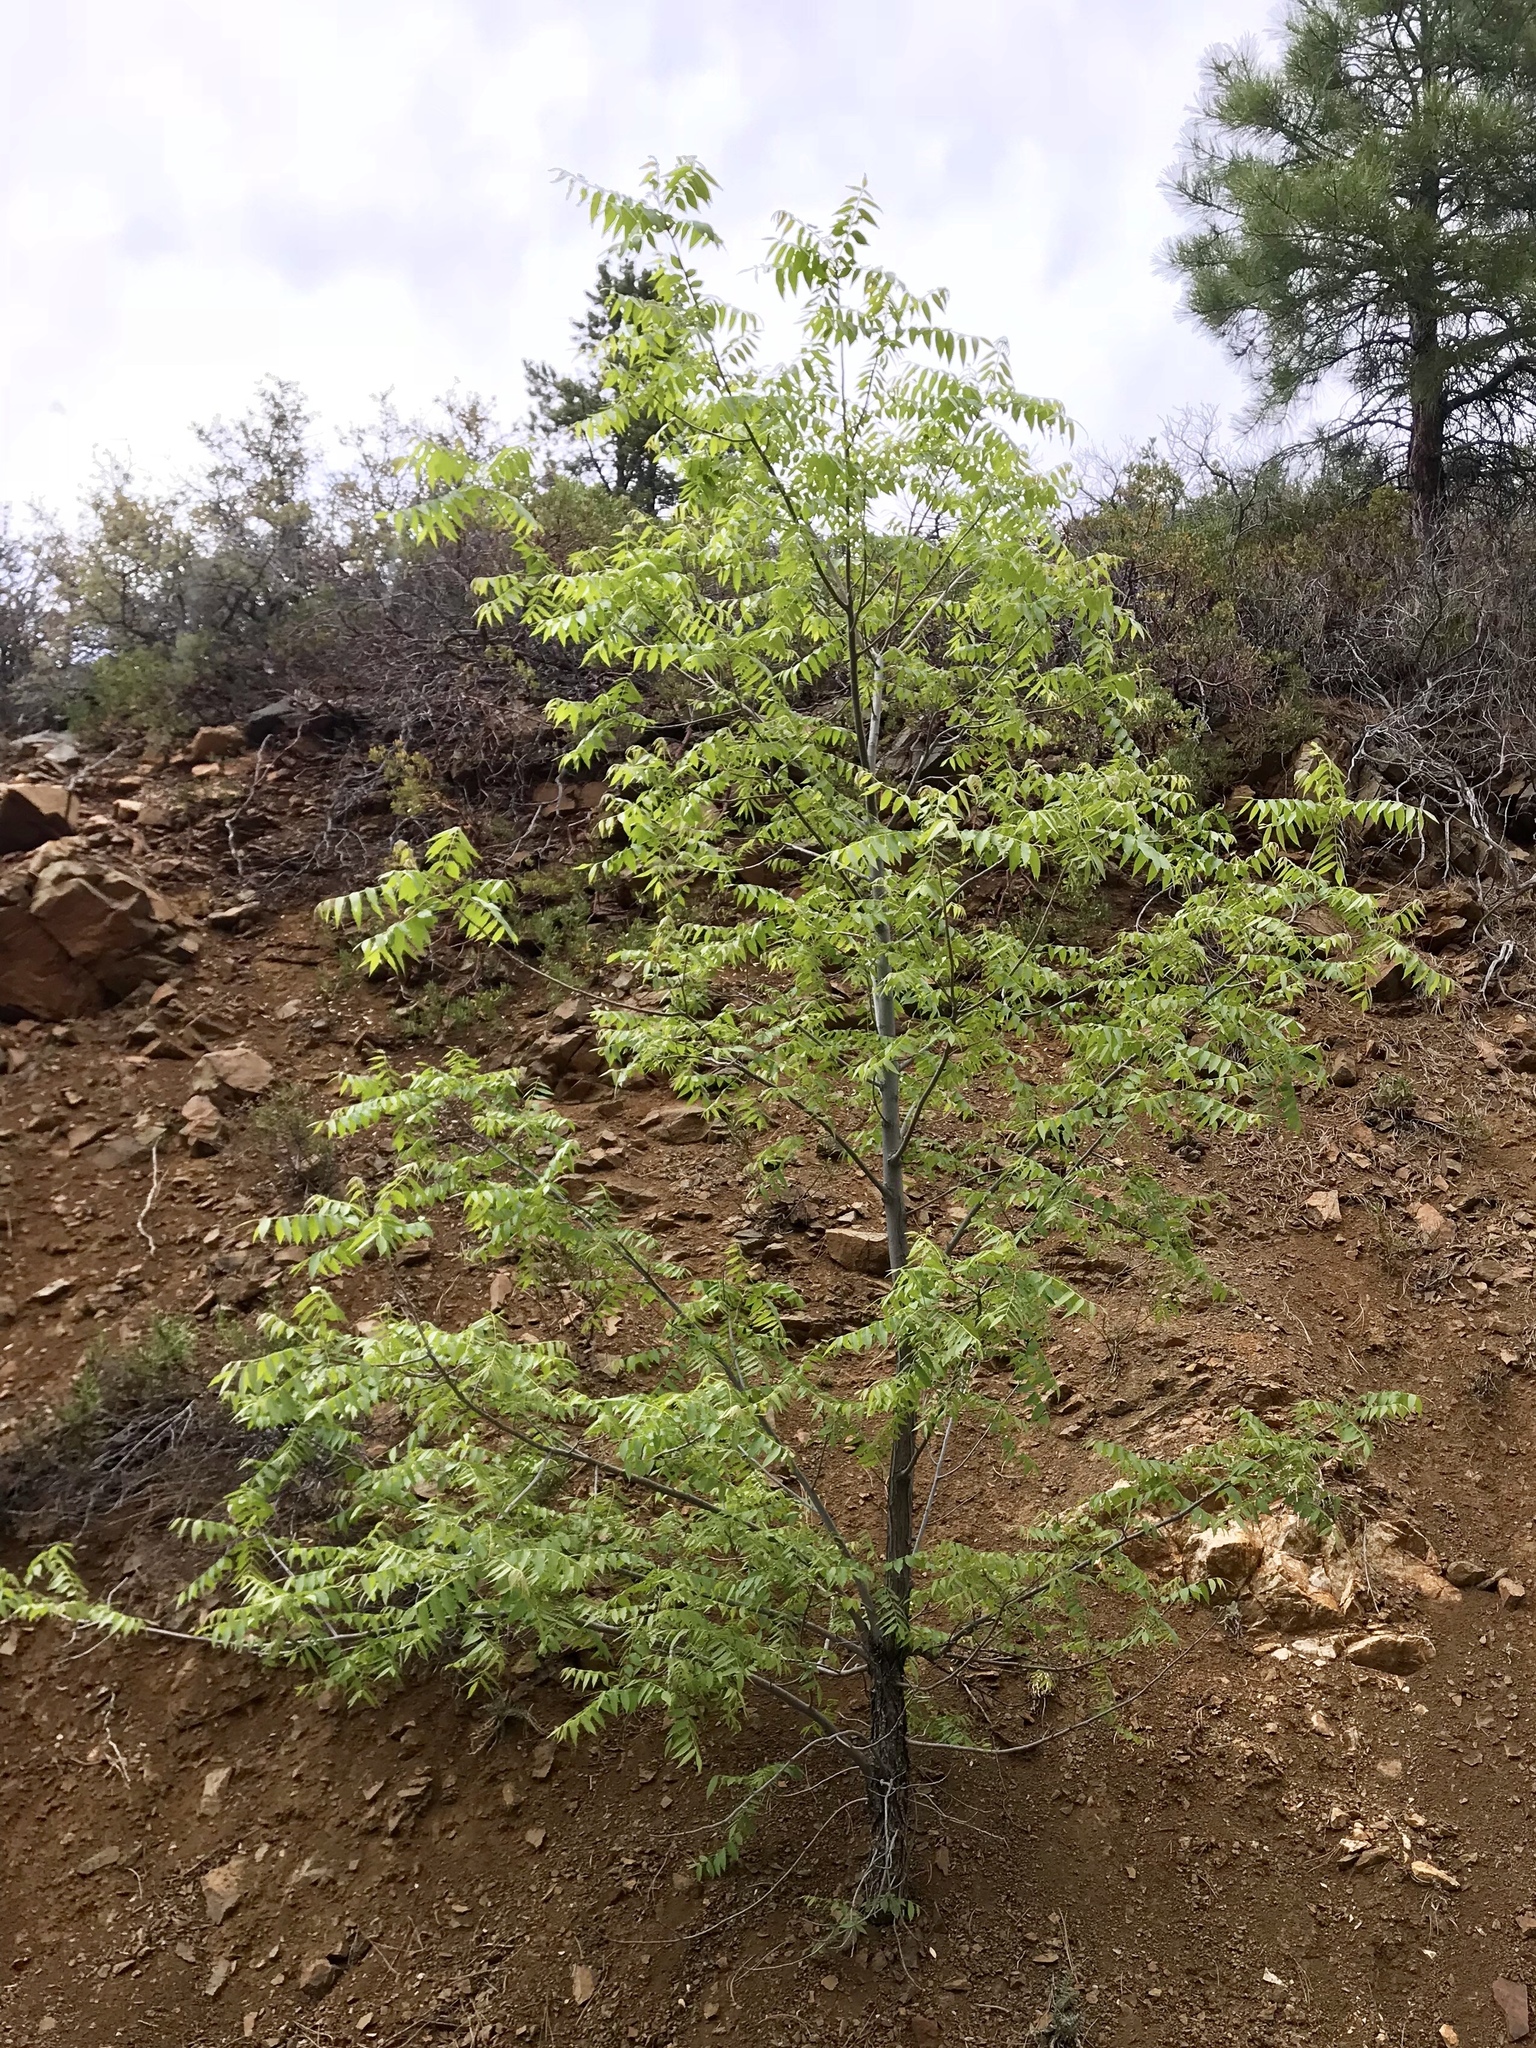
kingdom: Plantae
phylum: Tracheophyta
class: Magnoliopsida
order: Fagales
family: Juglandaceae
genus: Juglans
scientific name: Juglans major
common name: Arizona walnut
